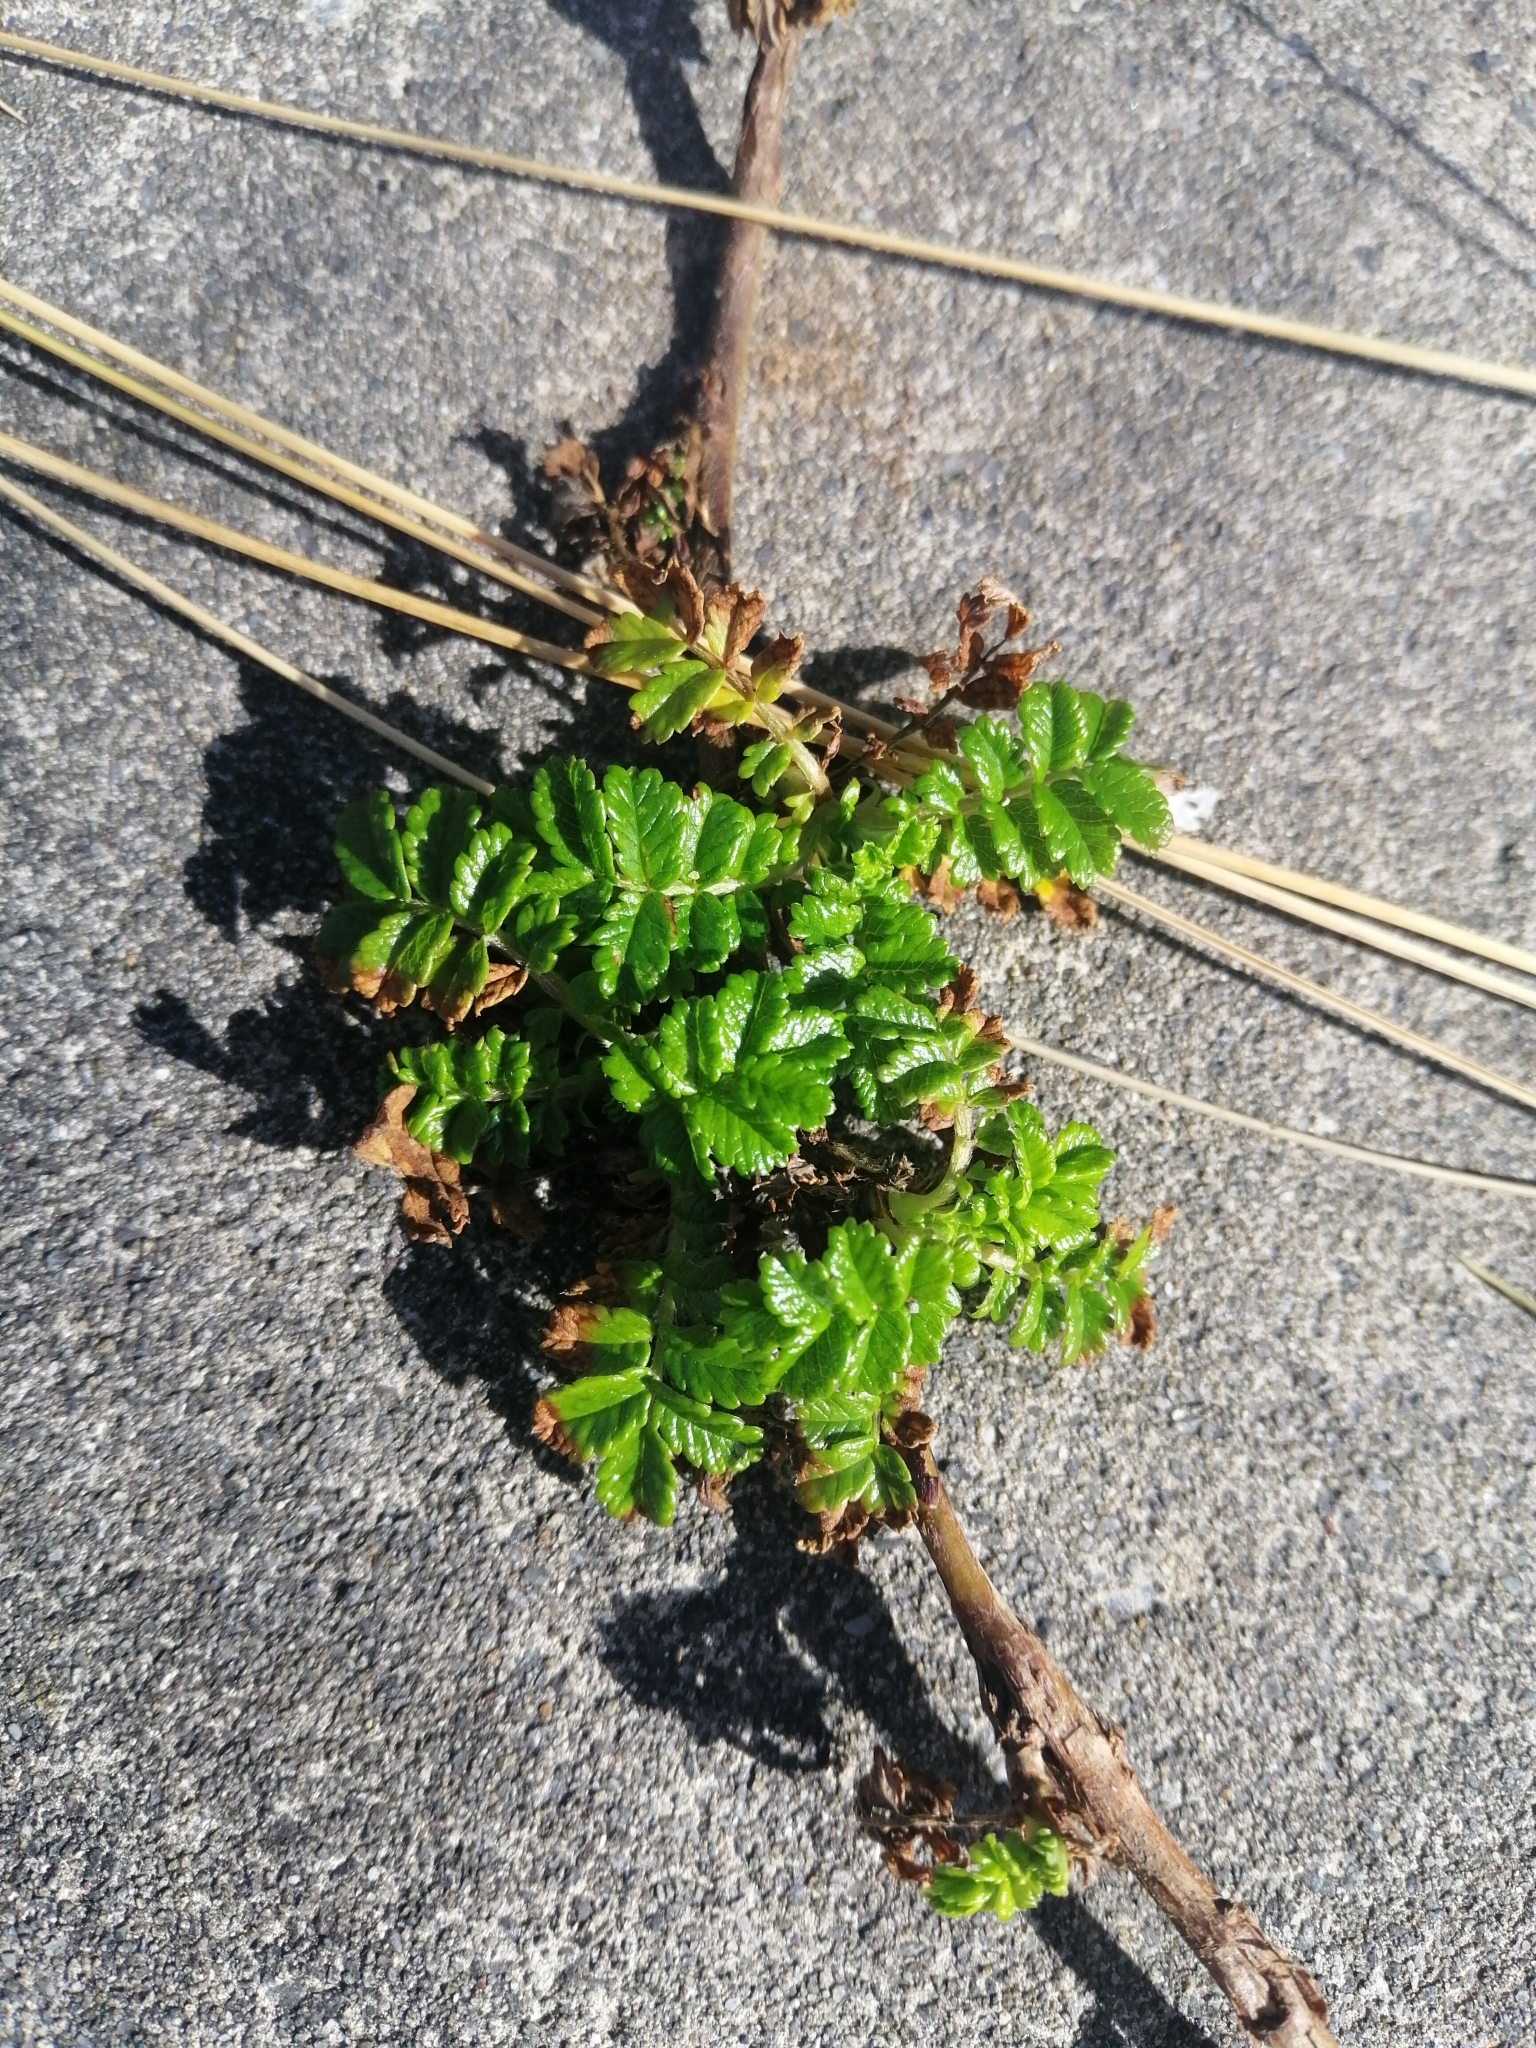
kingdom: Plantae
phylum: Tracheophyta
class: Magnoliopsida
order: Rosales
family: Rosaceae
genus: Acaena
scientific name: Acaena novae-zelandiae
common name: Pirri-pirri-bur
